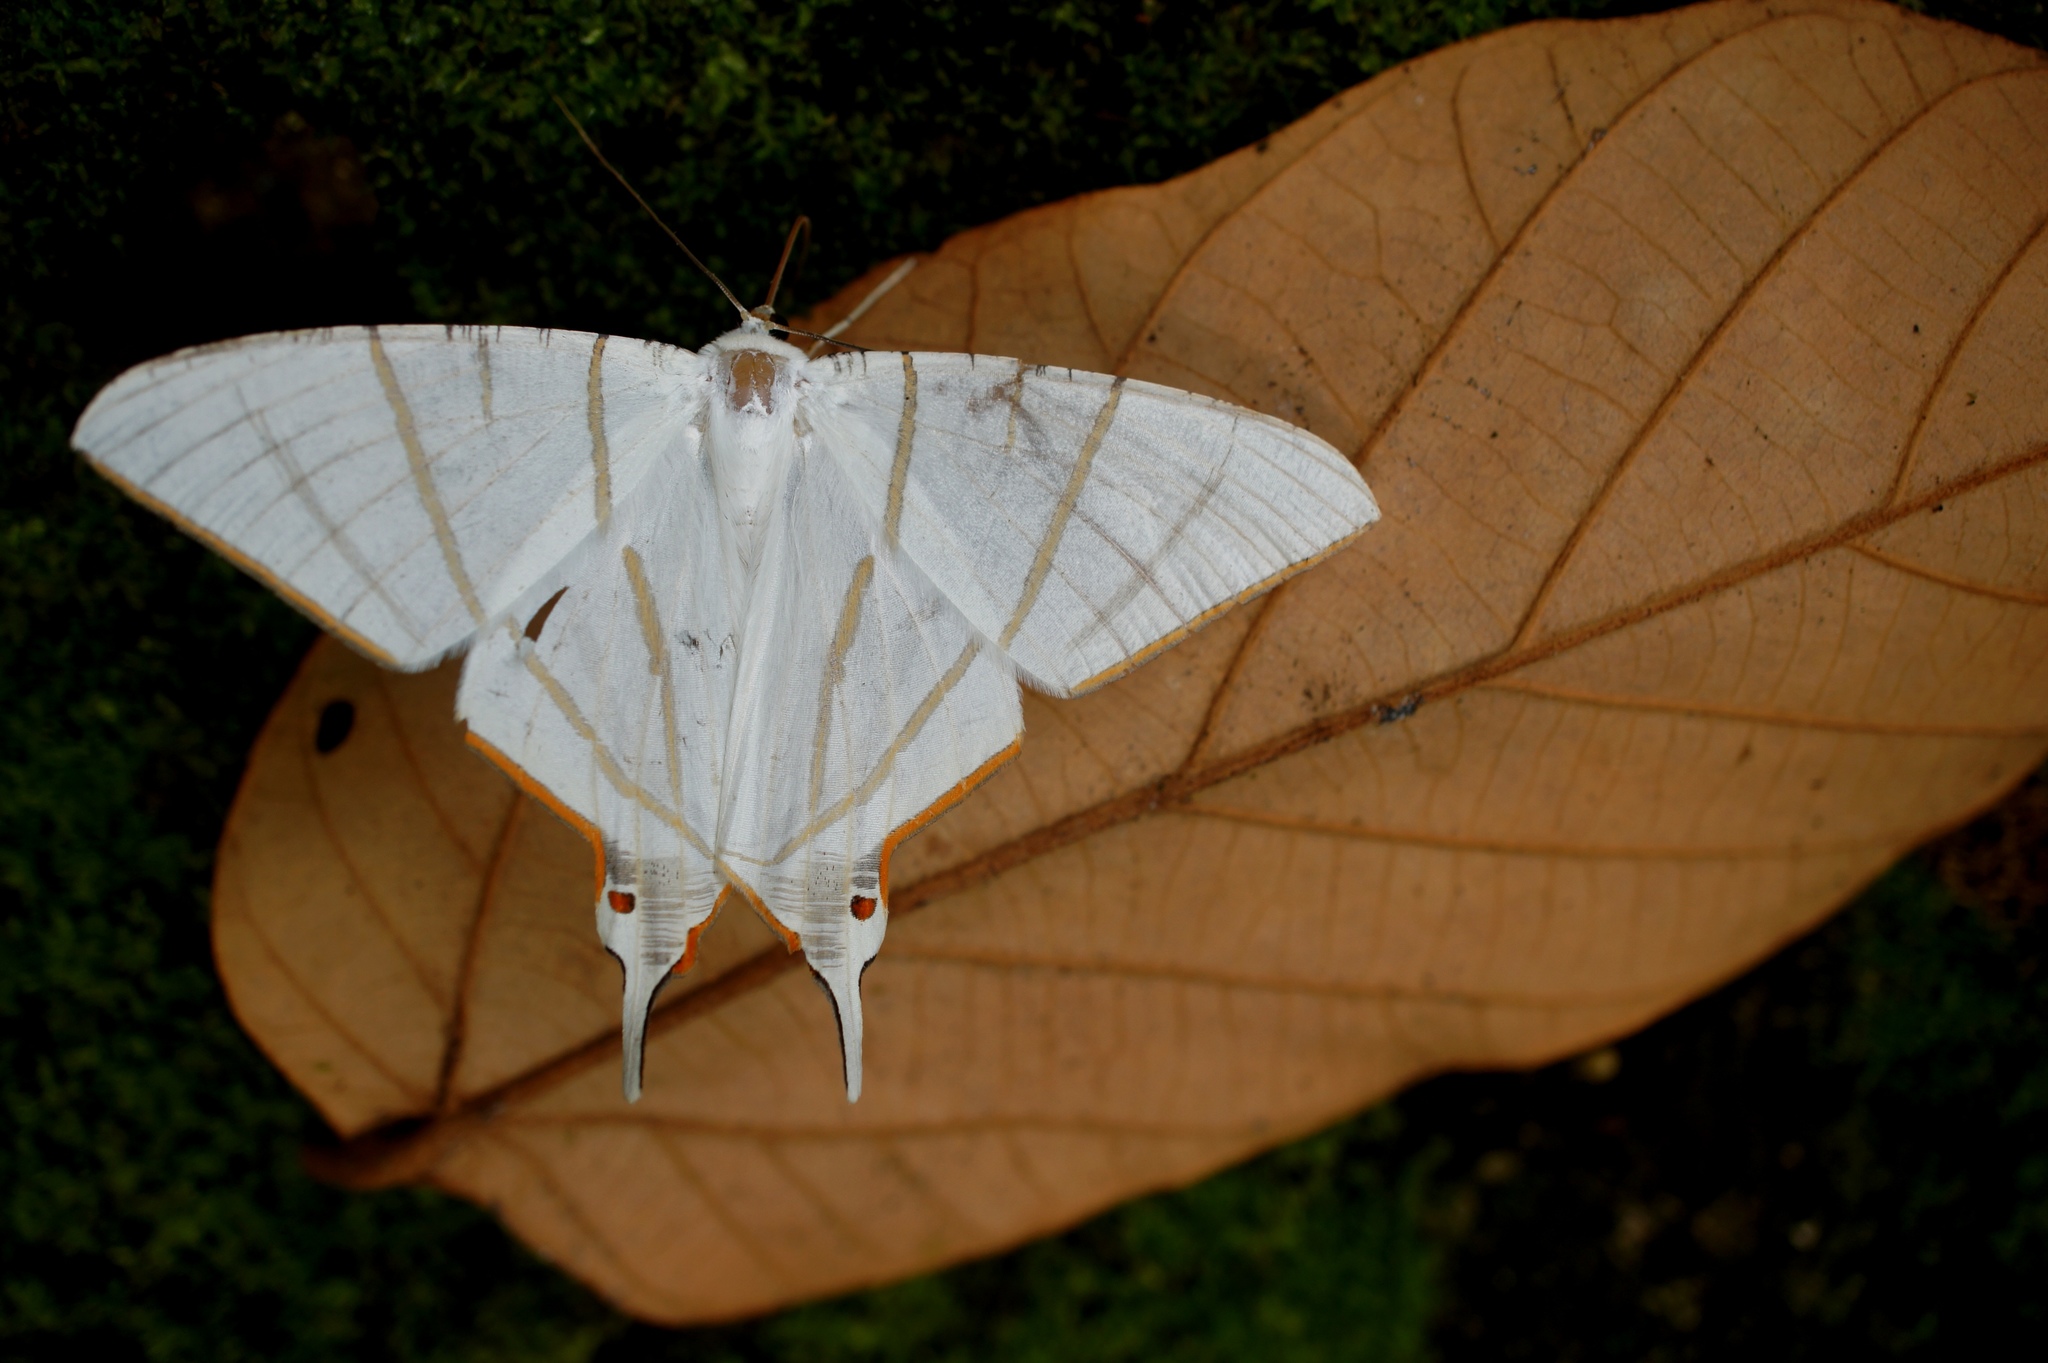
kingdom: Animalia
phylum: Arthropoda
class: Insecta
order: Lepidoptera
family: Geometridae
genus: Ourapteryx
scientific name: Ourapteryx podaliriata
